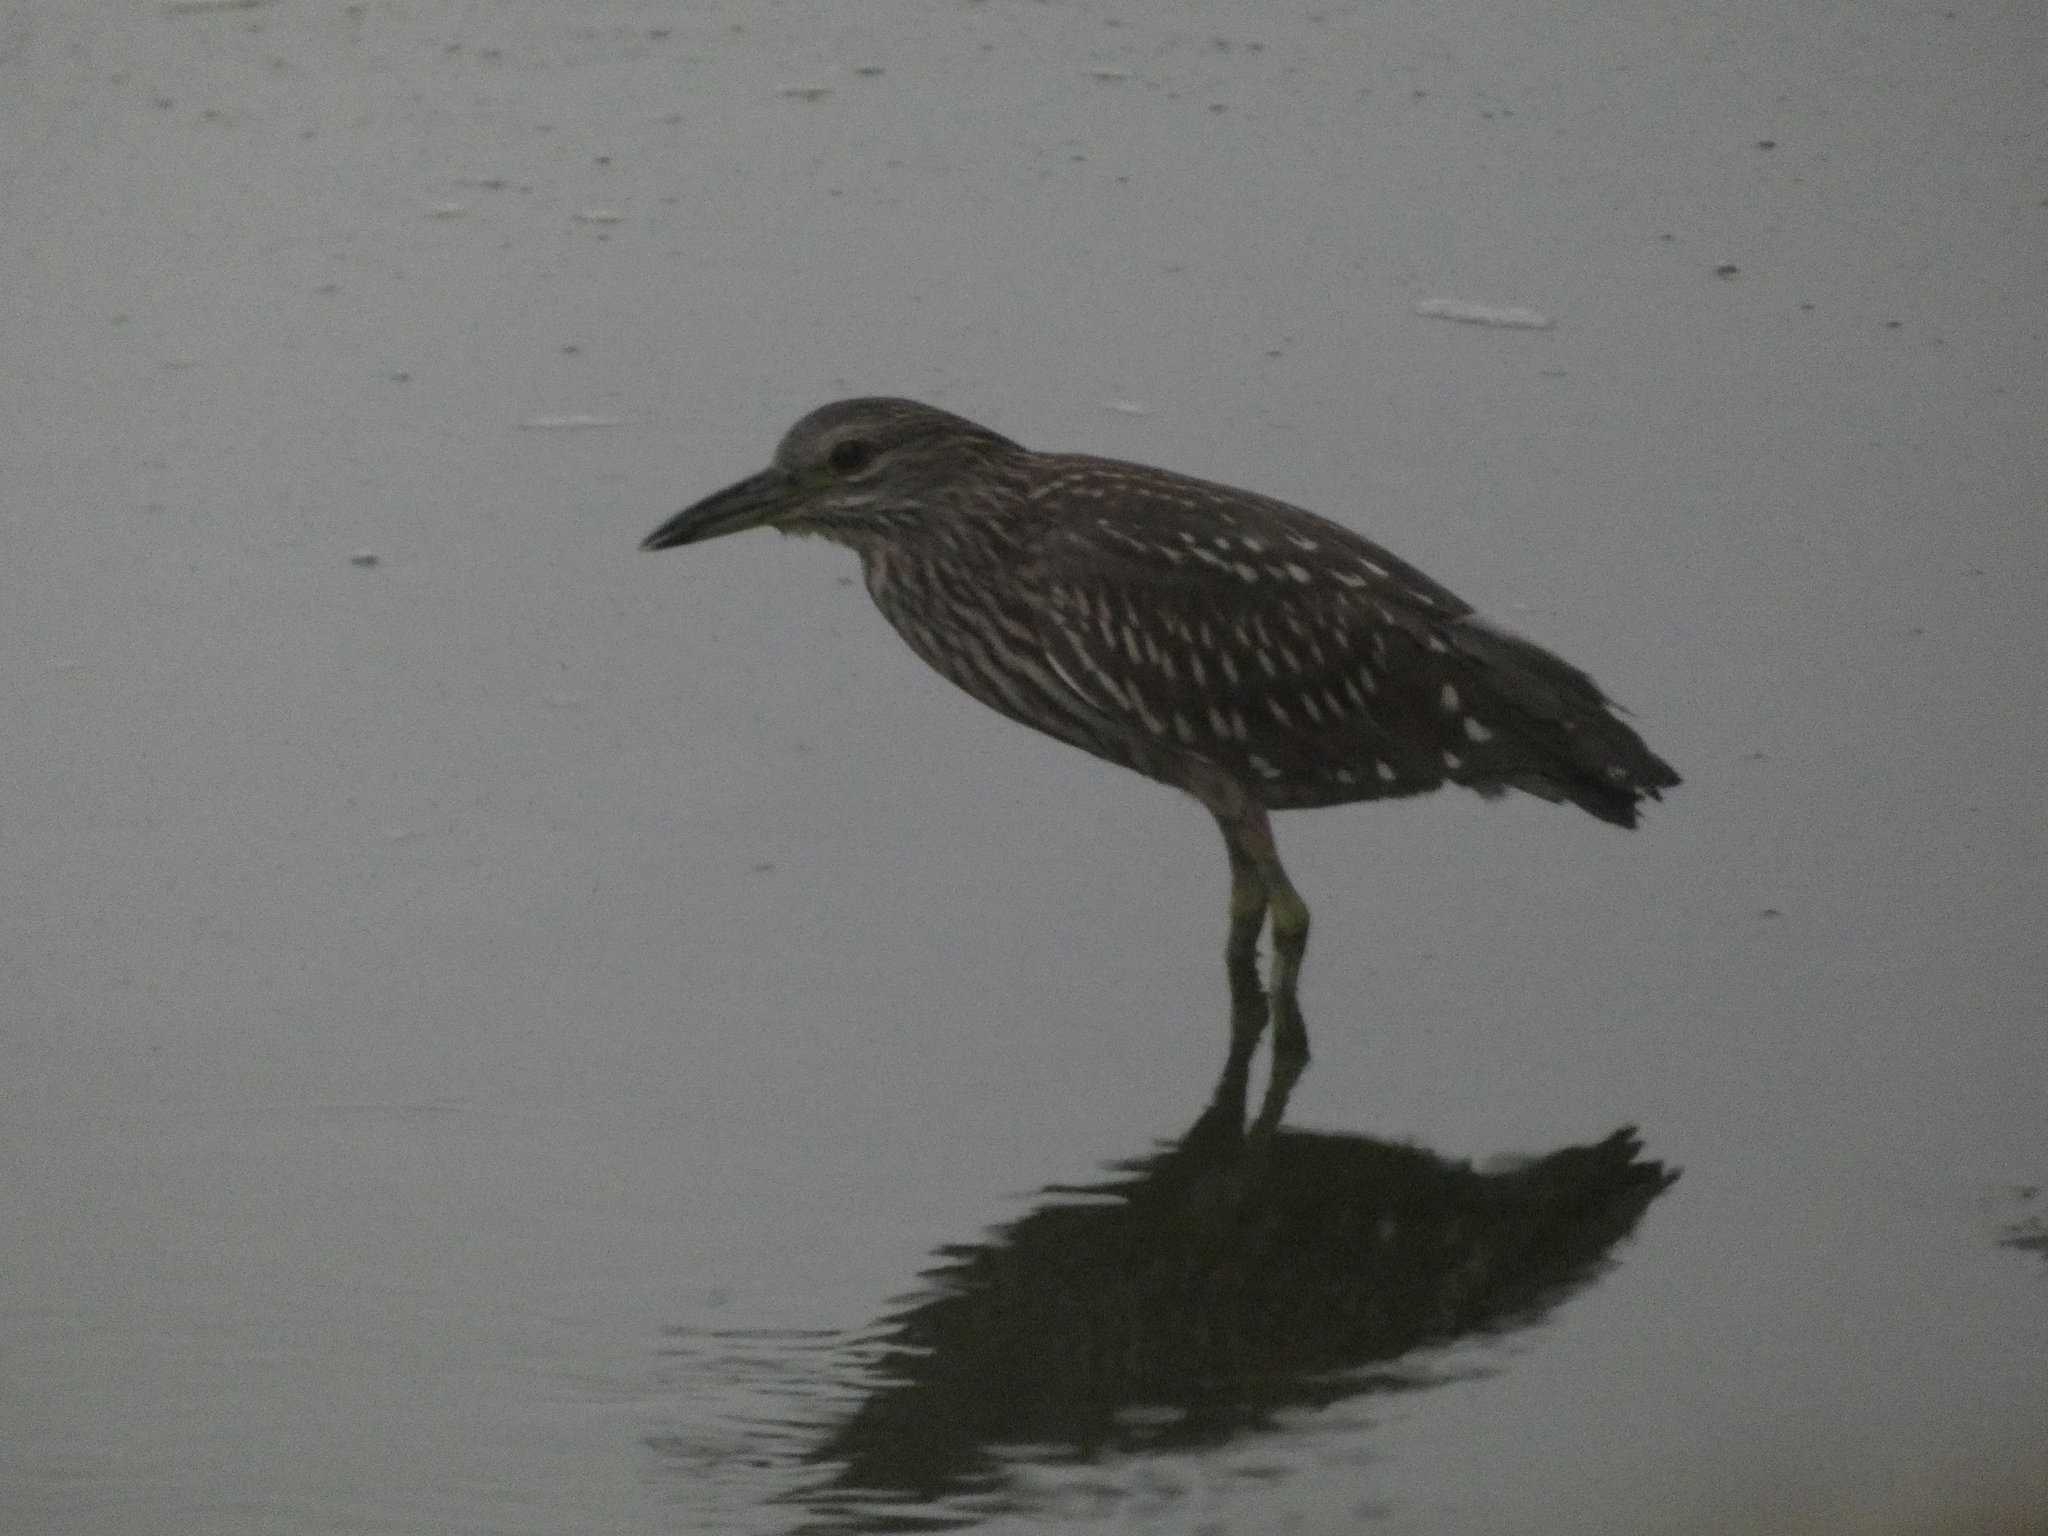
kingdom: Animalia
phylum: Chordata
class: Aves
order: Pelecaniformes
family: Ardeidae
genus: Nycticorax
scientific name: Nycticorax nycticorax
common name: Black-crowned night heron
